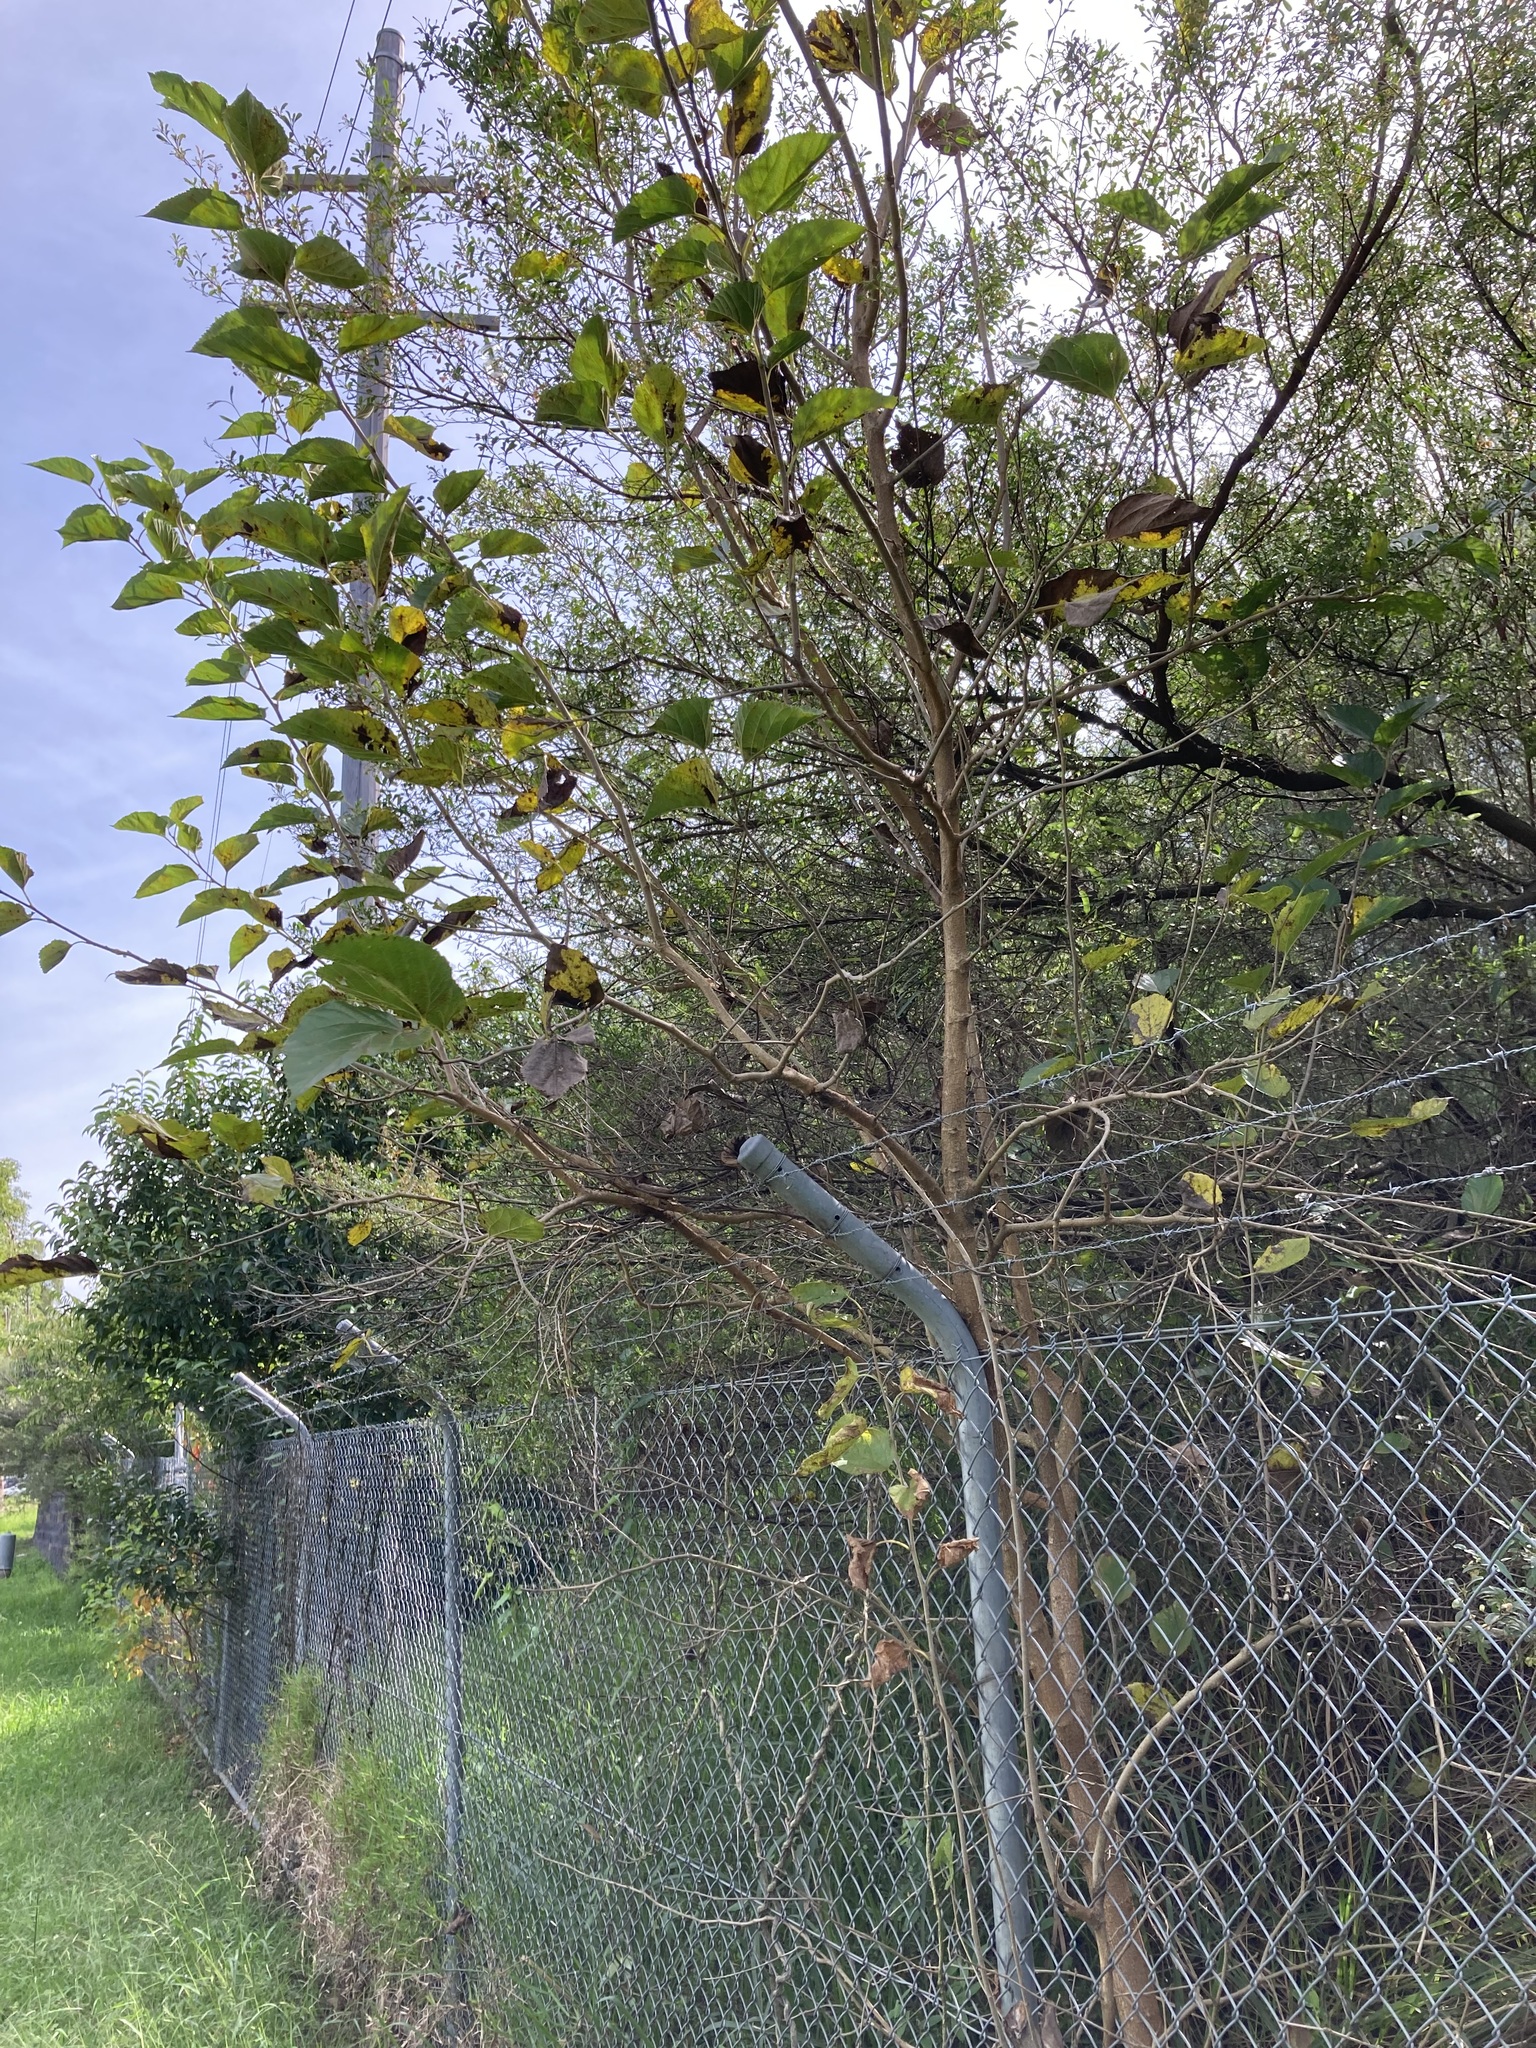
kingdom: Plantae
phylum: Tracheophyta
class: Magnoliopsida
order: Rosales
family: Moraceae
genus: Morus
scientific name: Morus alba
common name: White mulberry
